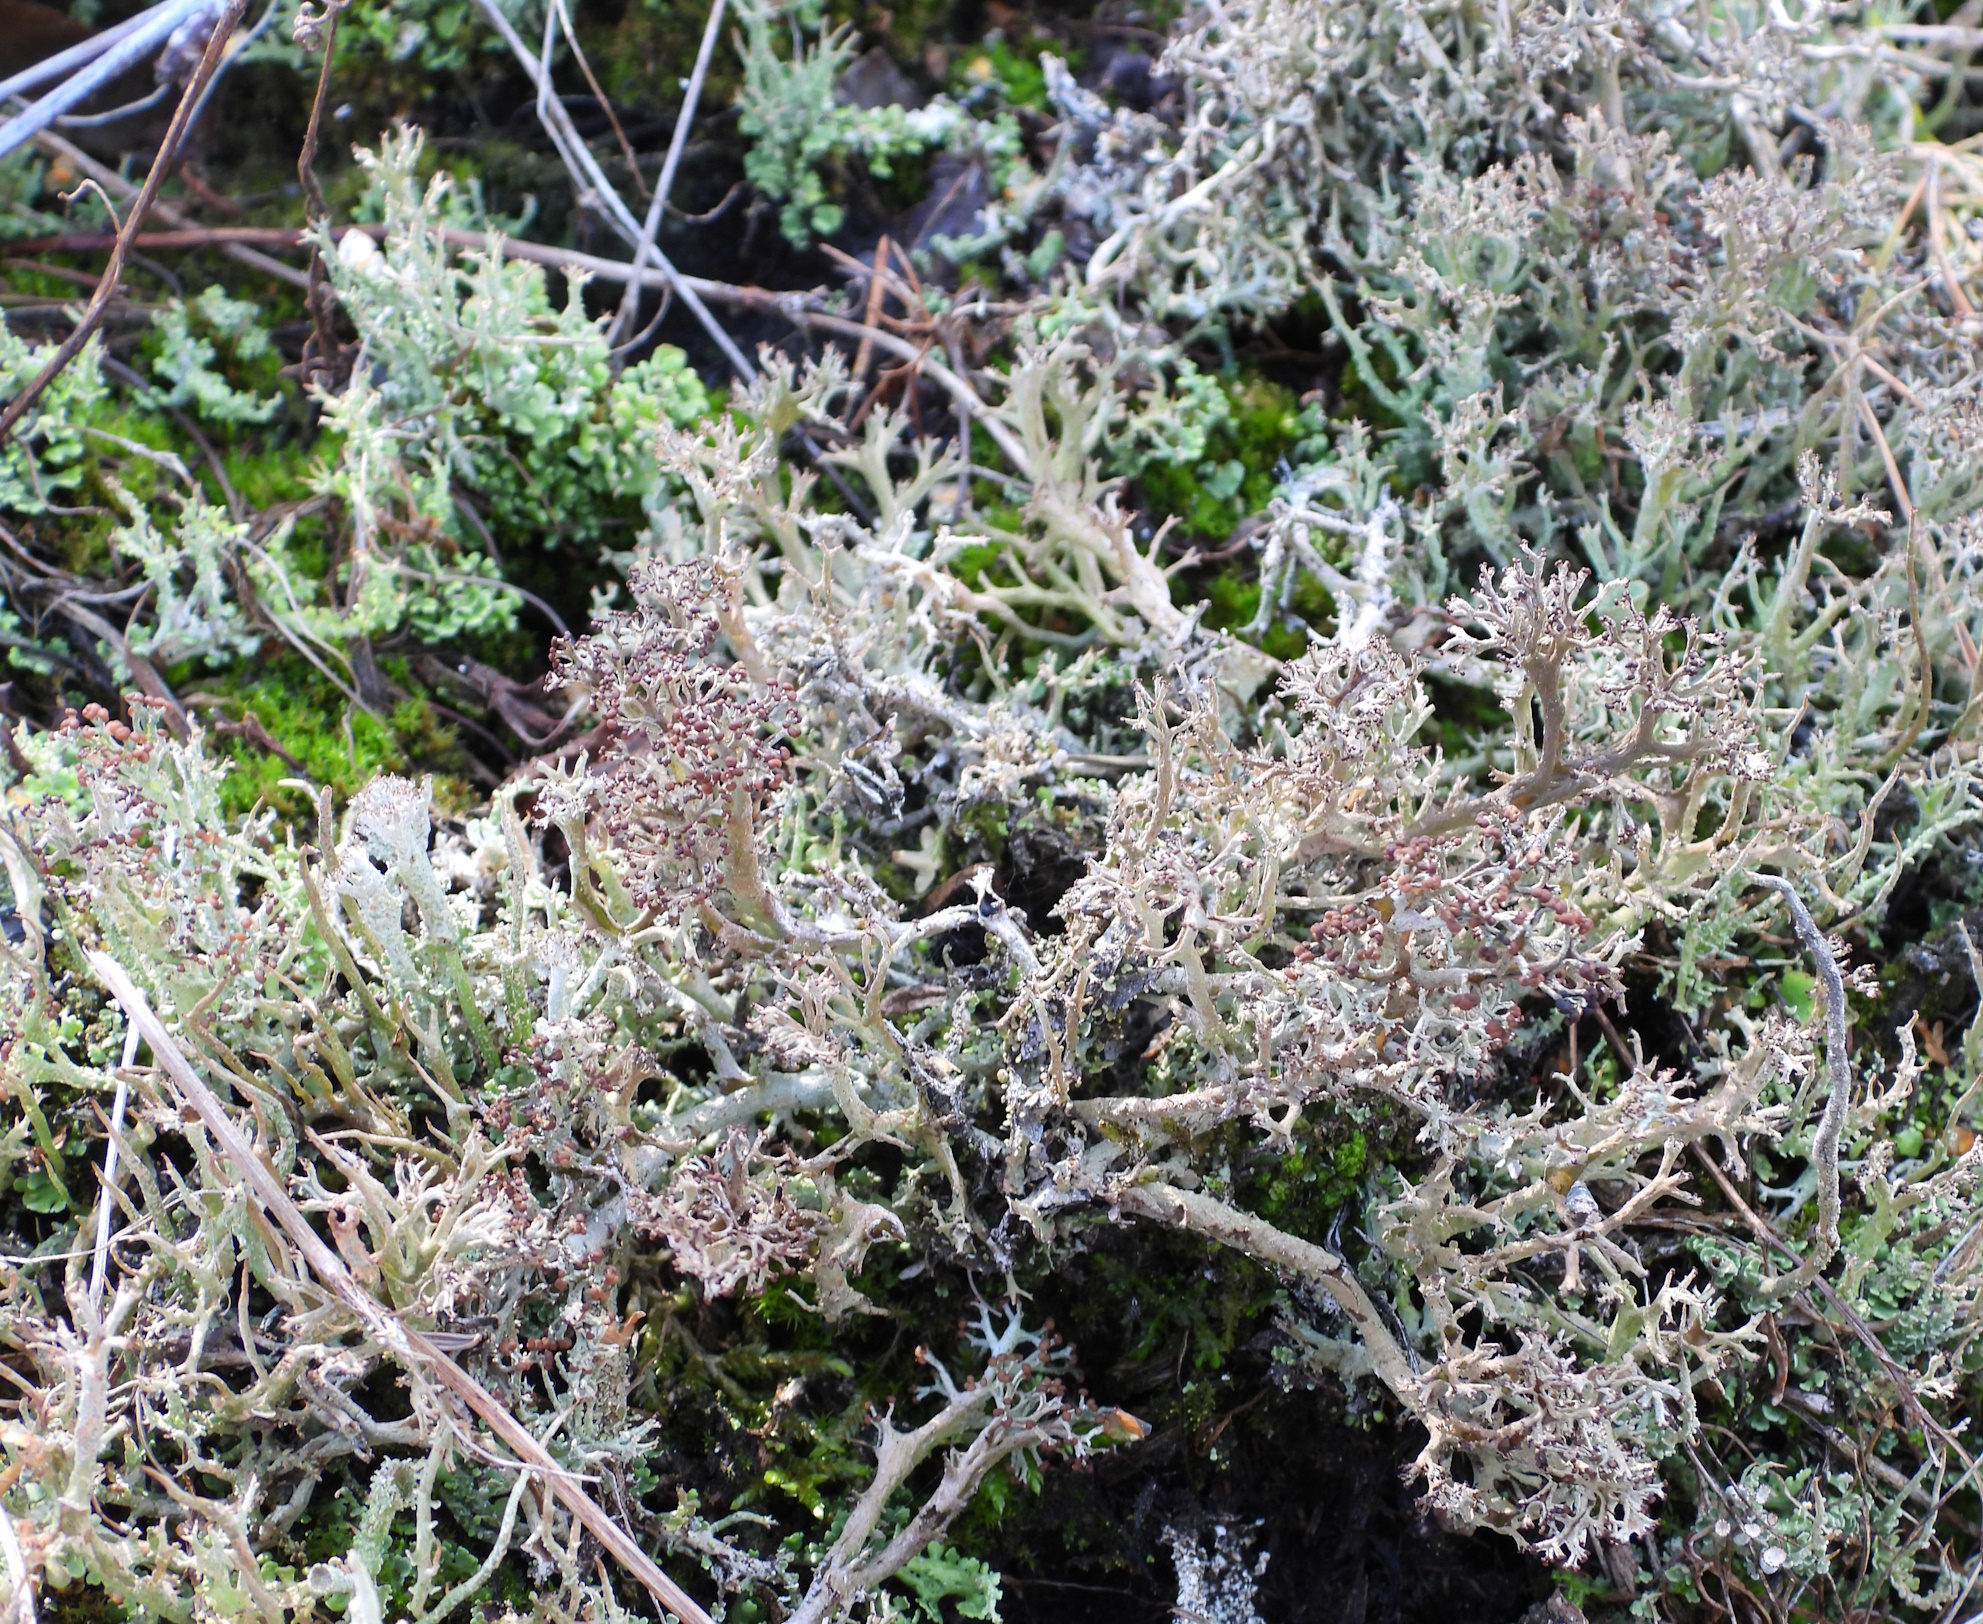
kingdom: Fungi
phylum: Ascomycota
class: Lecanoromycetes
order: Lecanorales
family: Cladoniaceae
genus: Cladonia
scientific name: Cladonia furcata
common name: Many-forked cladonia
